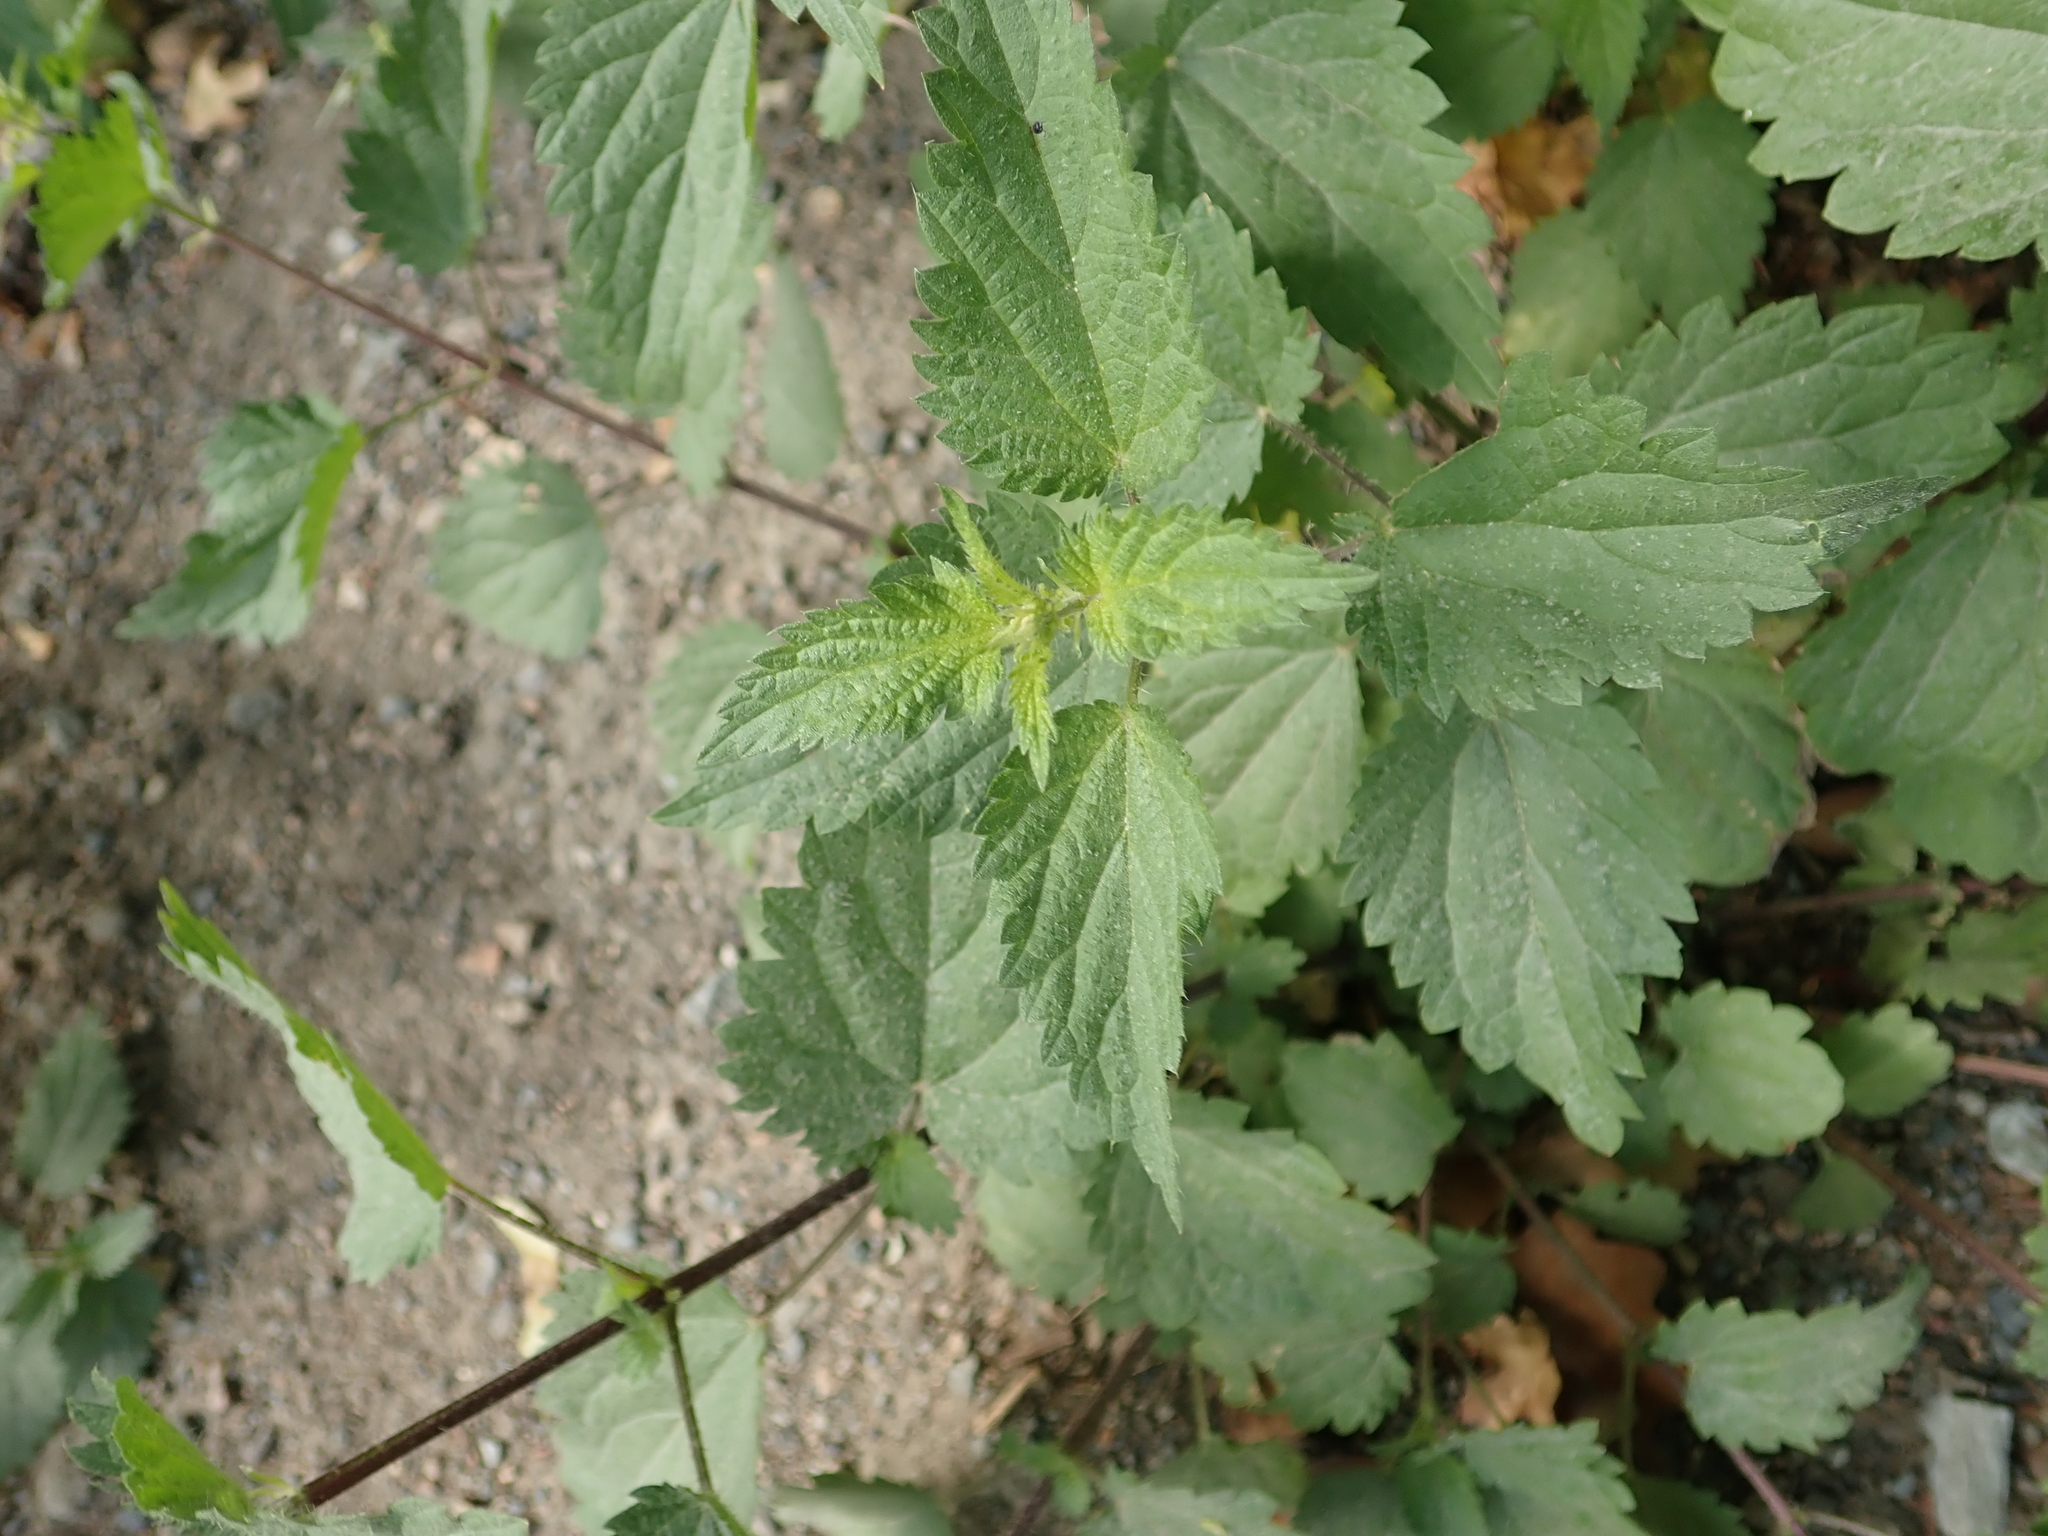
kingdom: Plantae
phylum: Tracheophyta
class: Magnoliopsida
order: Rosales
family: Urticaceae
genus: Urtica
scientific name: Urtica dioica
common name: Common nettle
